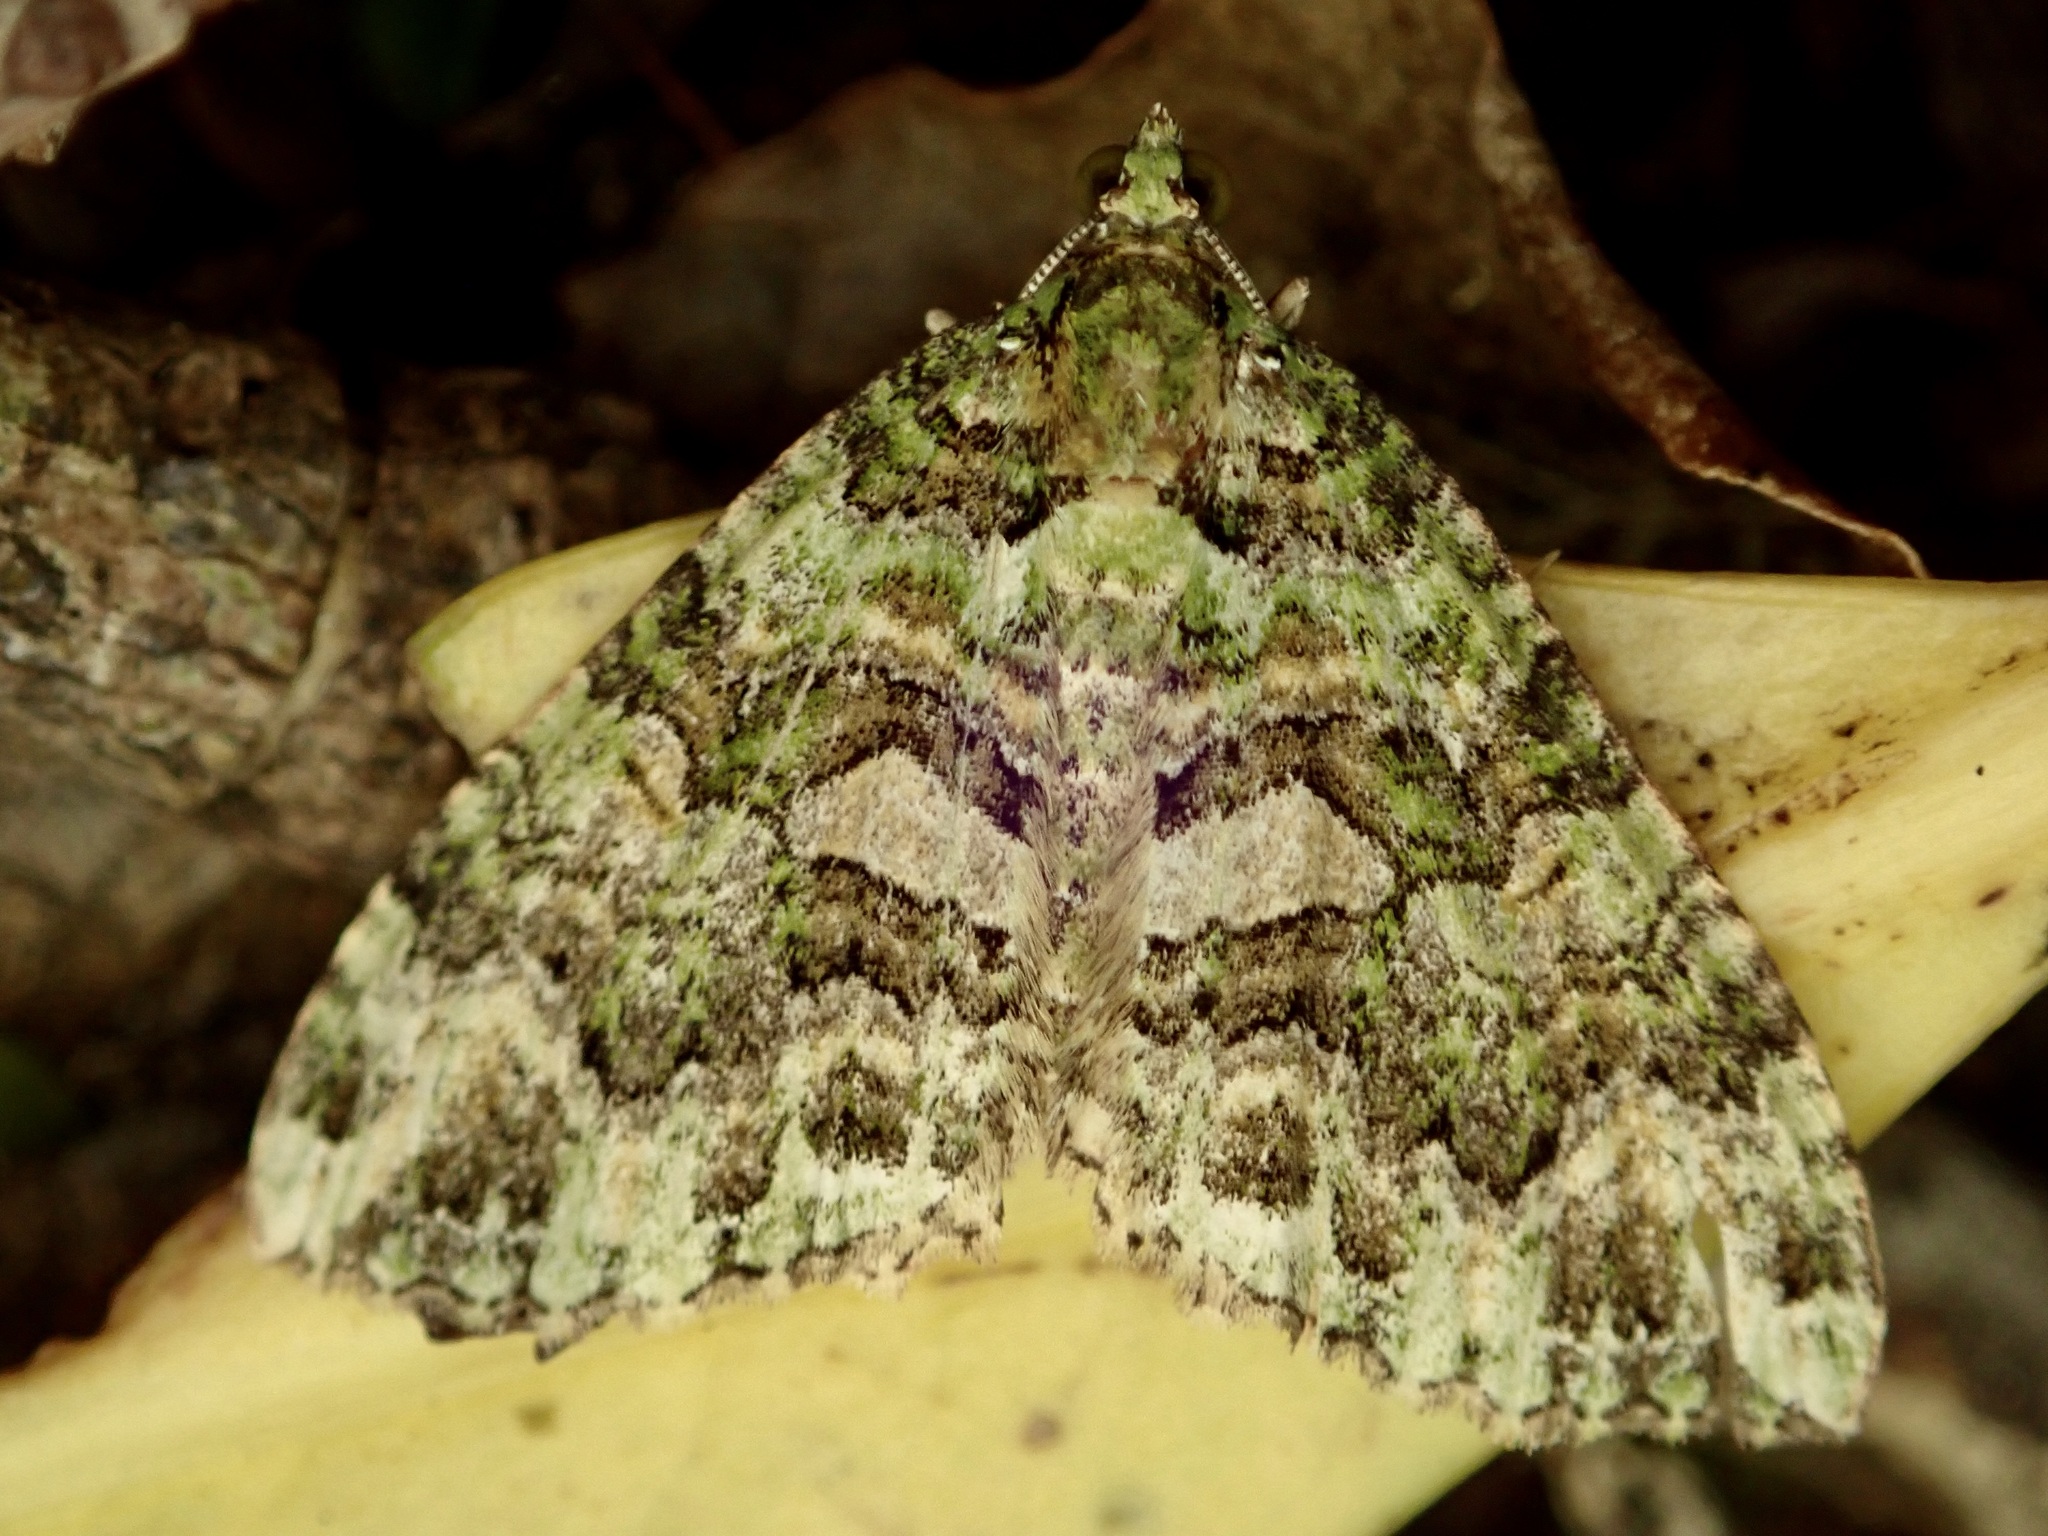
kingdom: Animalia
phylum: Arthropoda
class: Insecta
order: Lepidoptera
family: Geometridae
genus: Austrocidaria
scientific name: Austrocidaria similata
